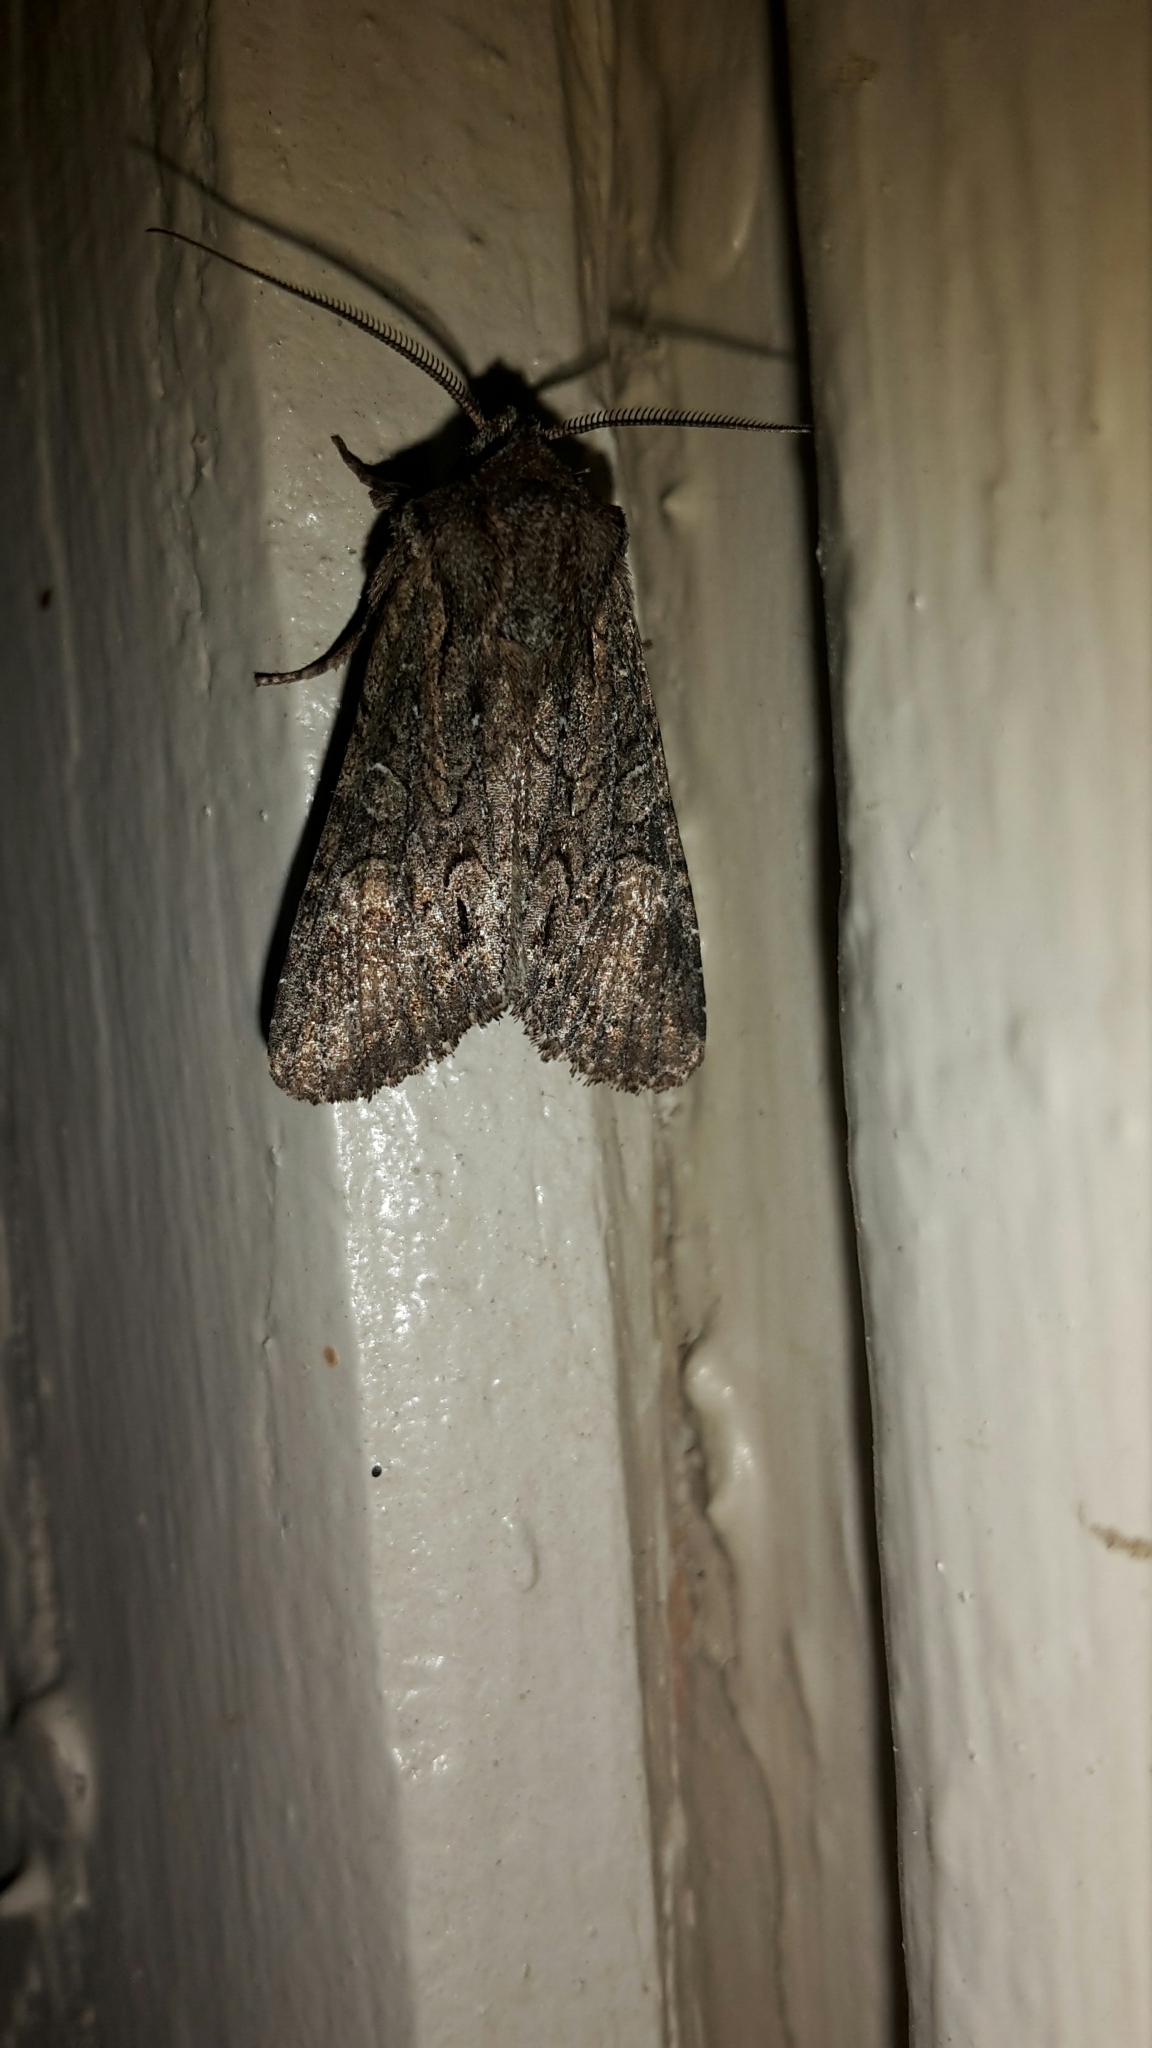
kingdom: Animalia
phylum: Arthropoda
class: Insecta
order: Lepidoptera
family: Noctuidae
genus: Ichneutica
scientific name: Ichneutica mutans
